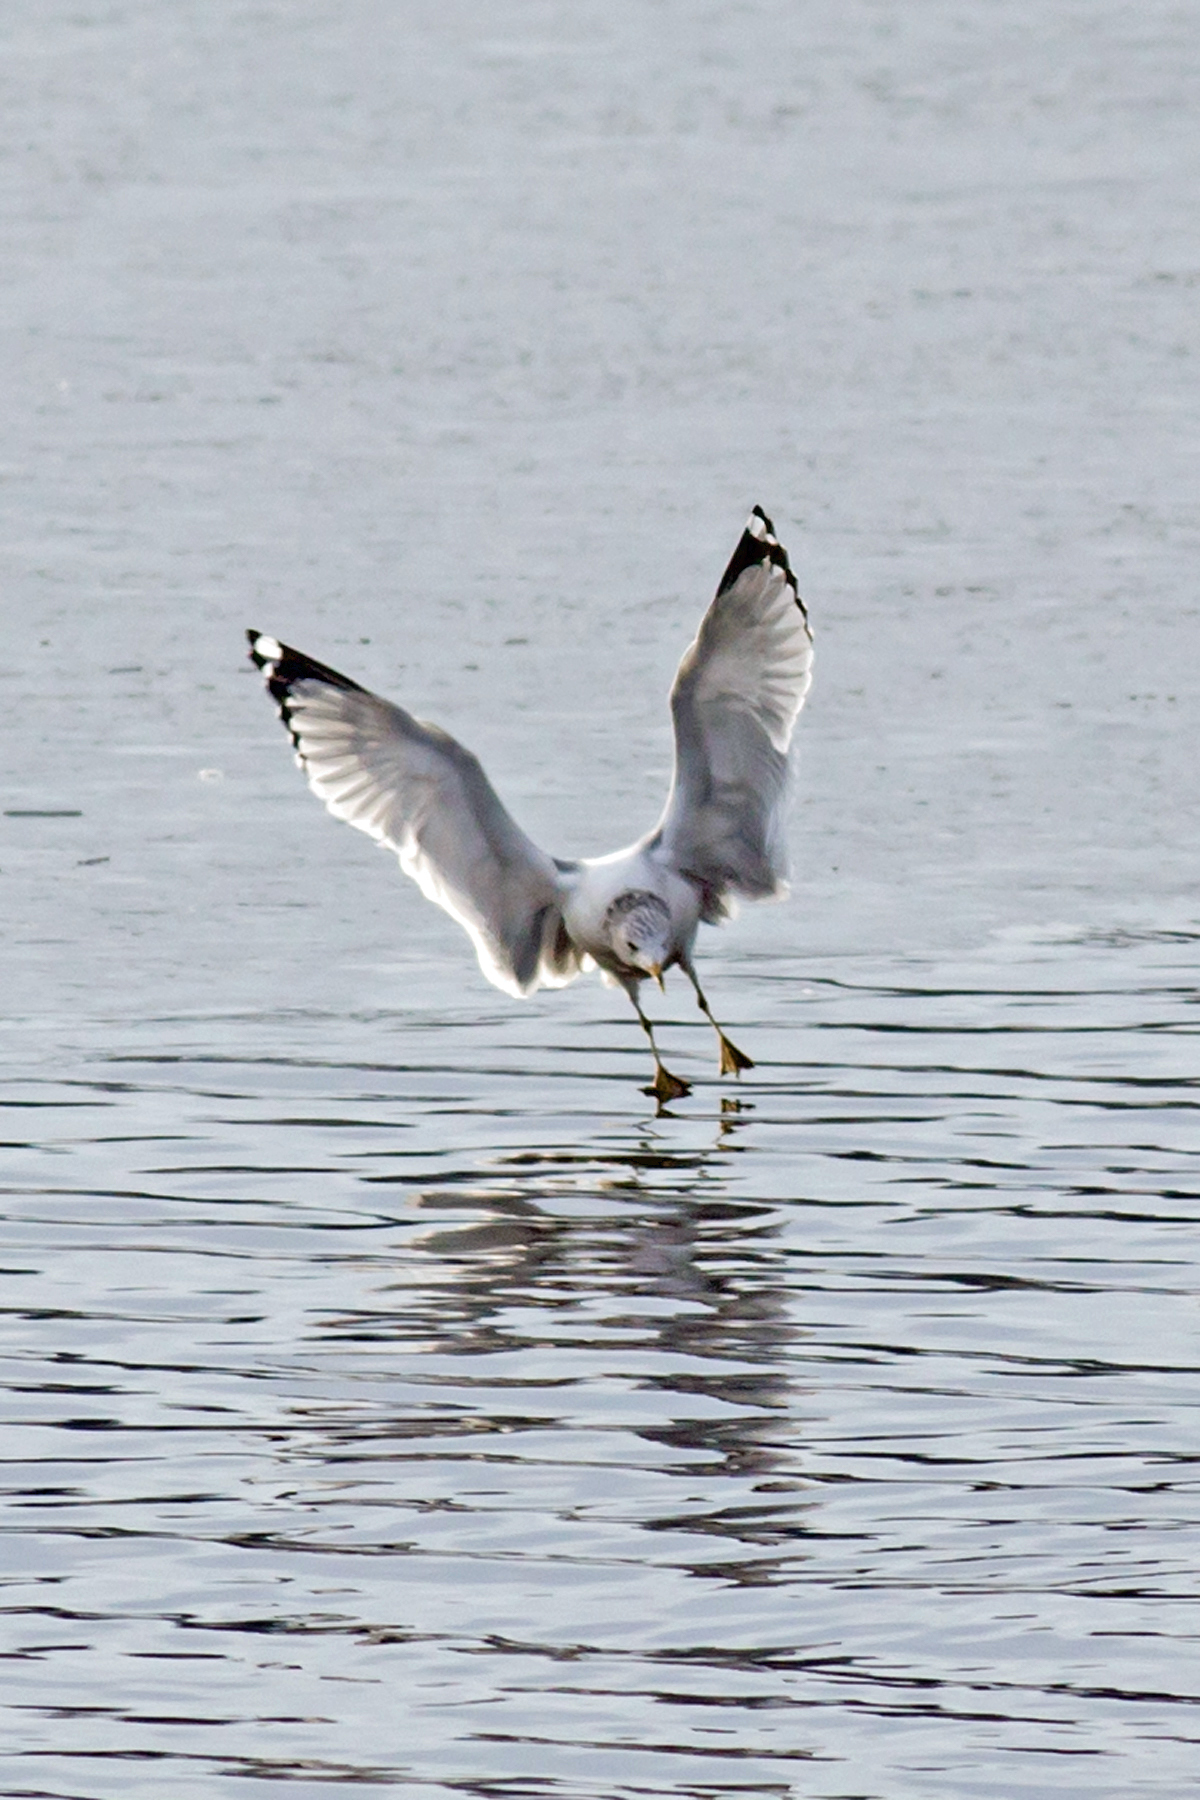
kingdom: Animalia
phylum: Chordata
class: Aves
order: Charadriiformes
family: Laridae
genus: Larus
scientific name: Larus delawarensis
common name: Ring-billed gull
